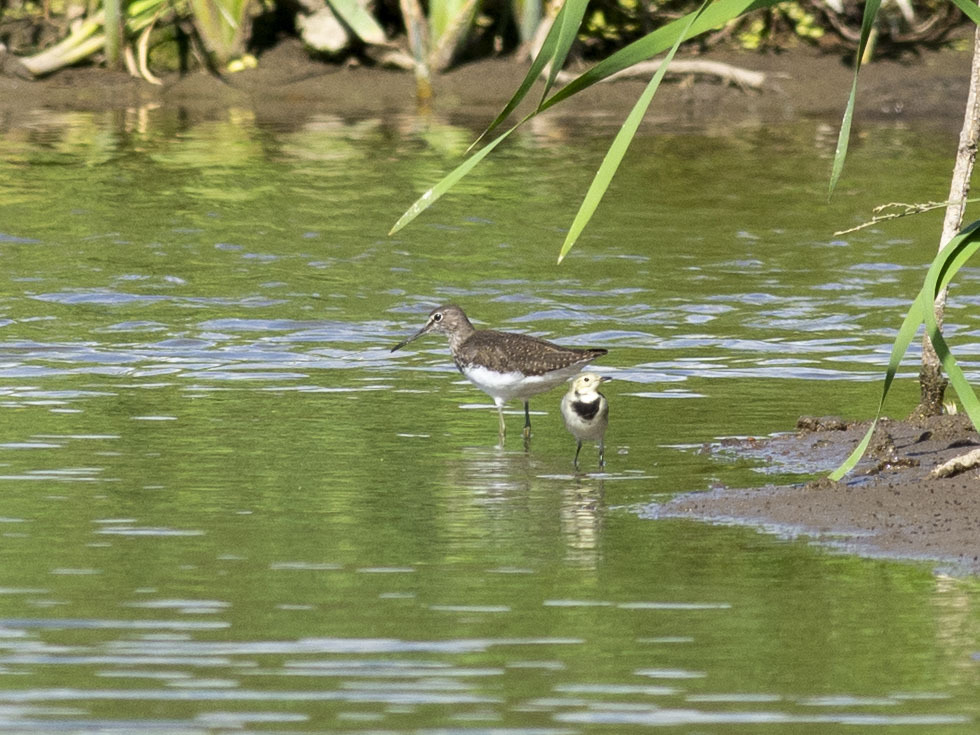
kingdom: Animalia
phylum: Chordata
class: Aves
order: Charadriiformes
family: Scolopacidae
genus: Tringa
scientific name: Tringa ochropus
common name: Green sandpiper
